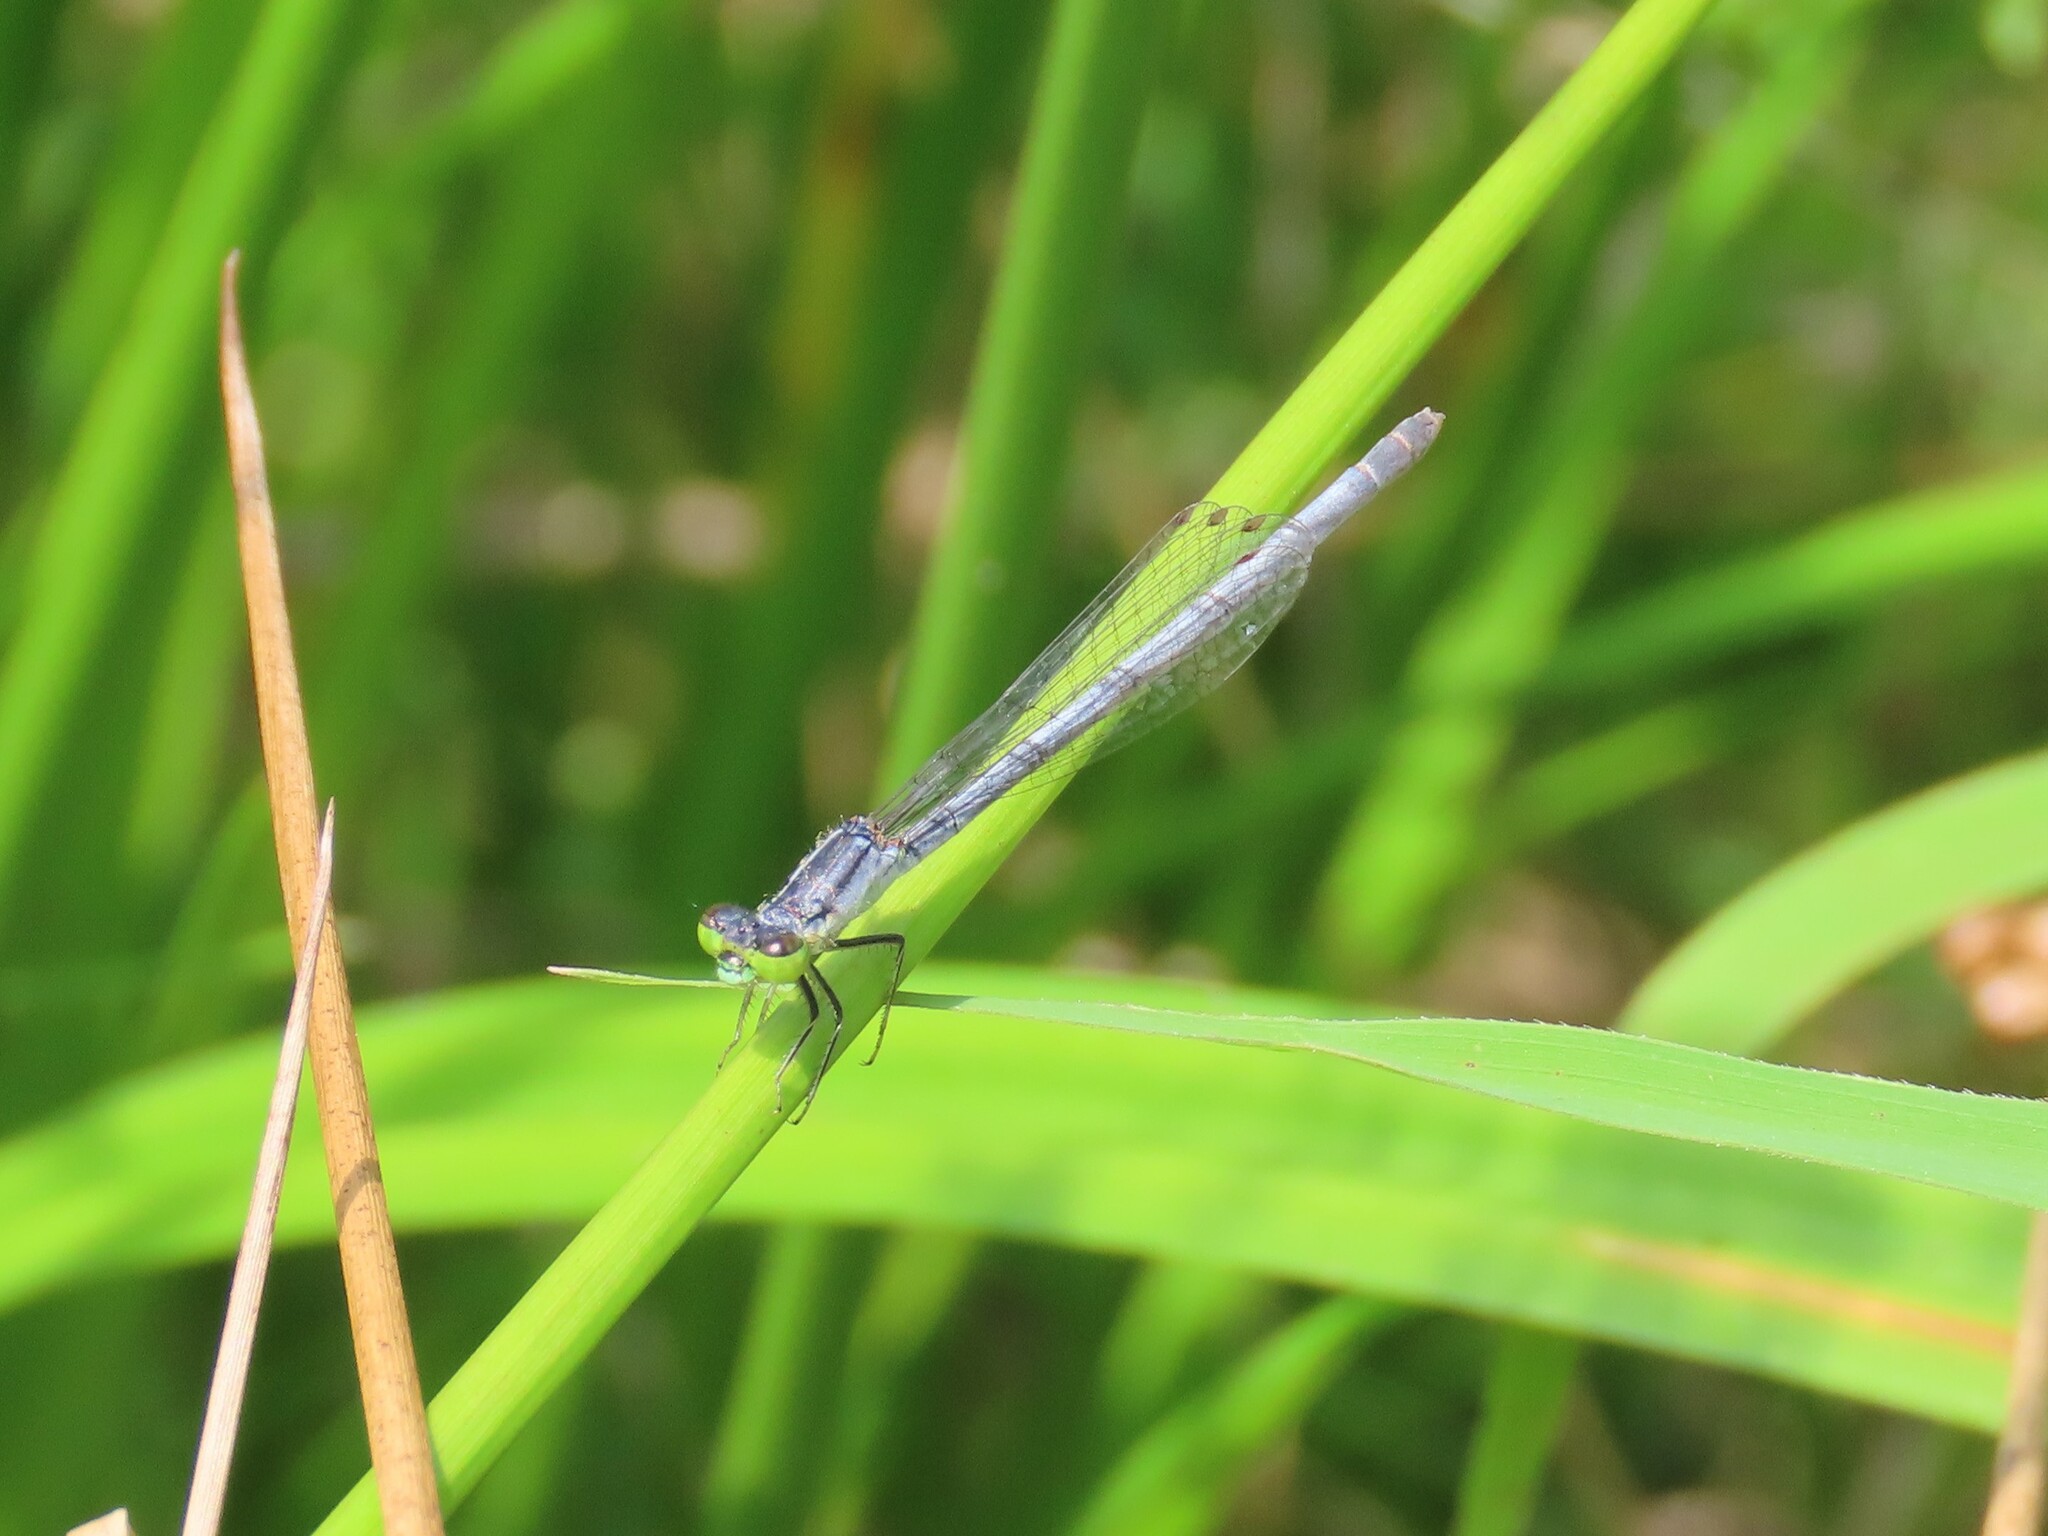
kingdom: Animalia
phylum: Arthropoda
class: Insecta
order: Odonata
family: Coenagrionidae
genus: Ischnura
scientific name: Ischnura posita
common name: Fragile forktail
